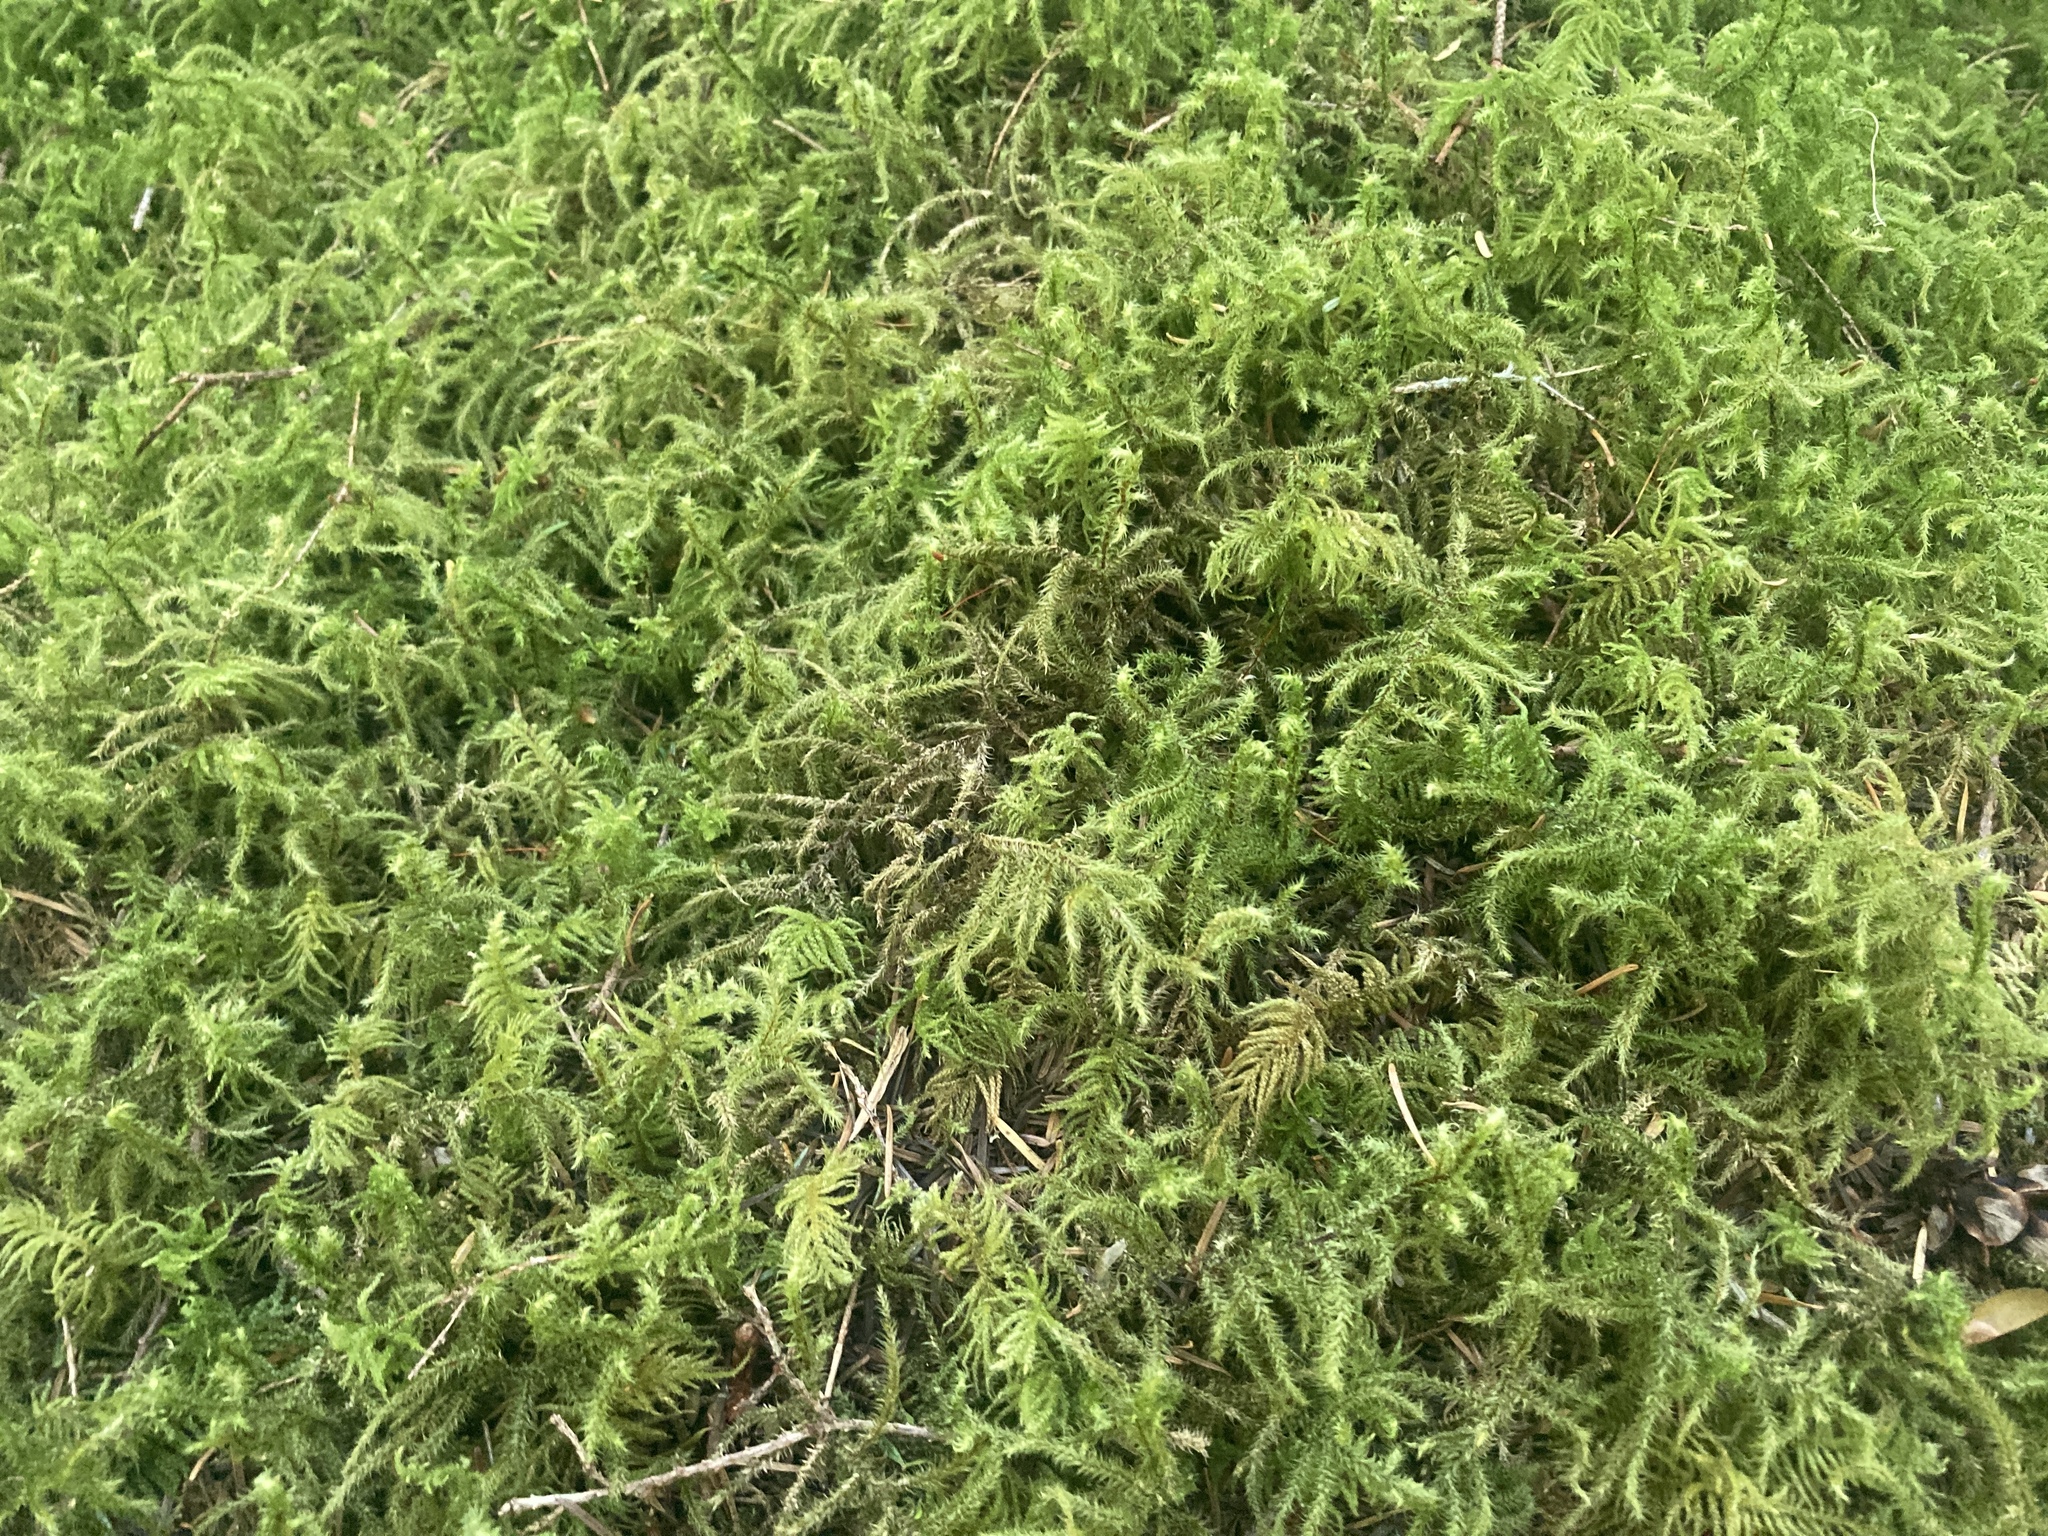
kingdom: Plantae
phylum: Bryophyta
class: Bryopsida
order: Hypnales
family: Hylocomiaceae
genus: Rhytidiadelphus
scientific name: Rhytidiadelphus loreus
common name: Lanky moss
